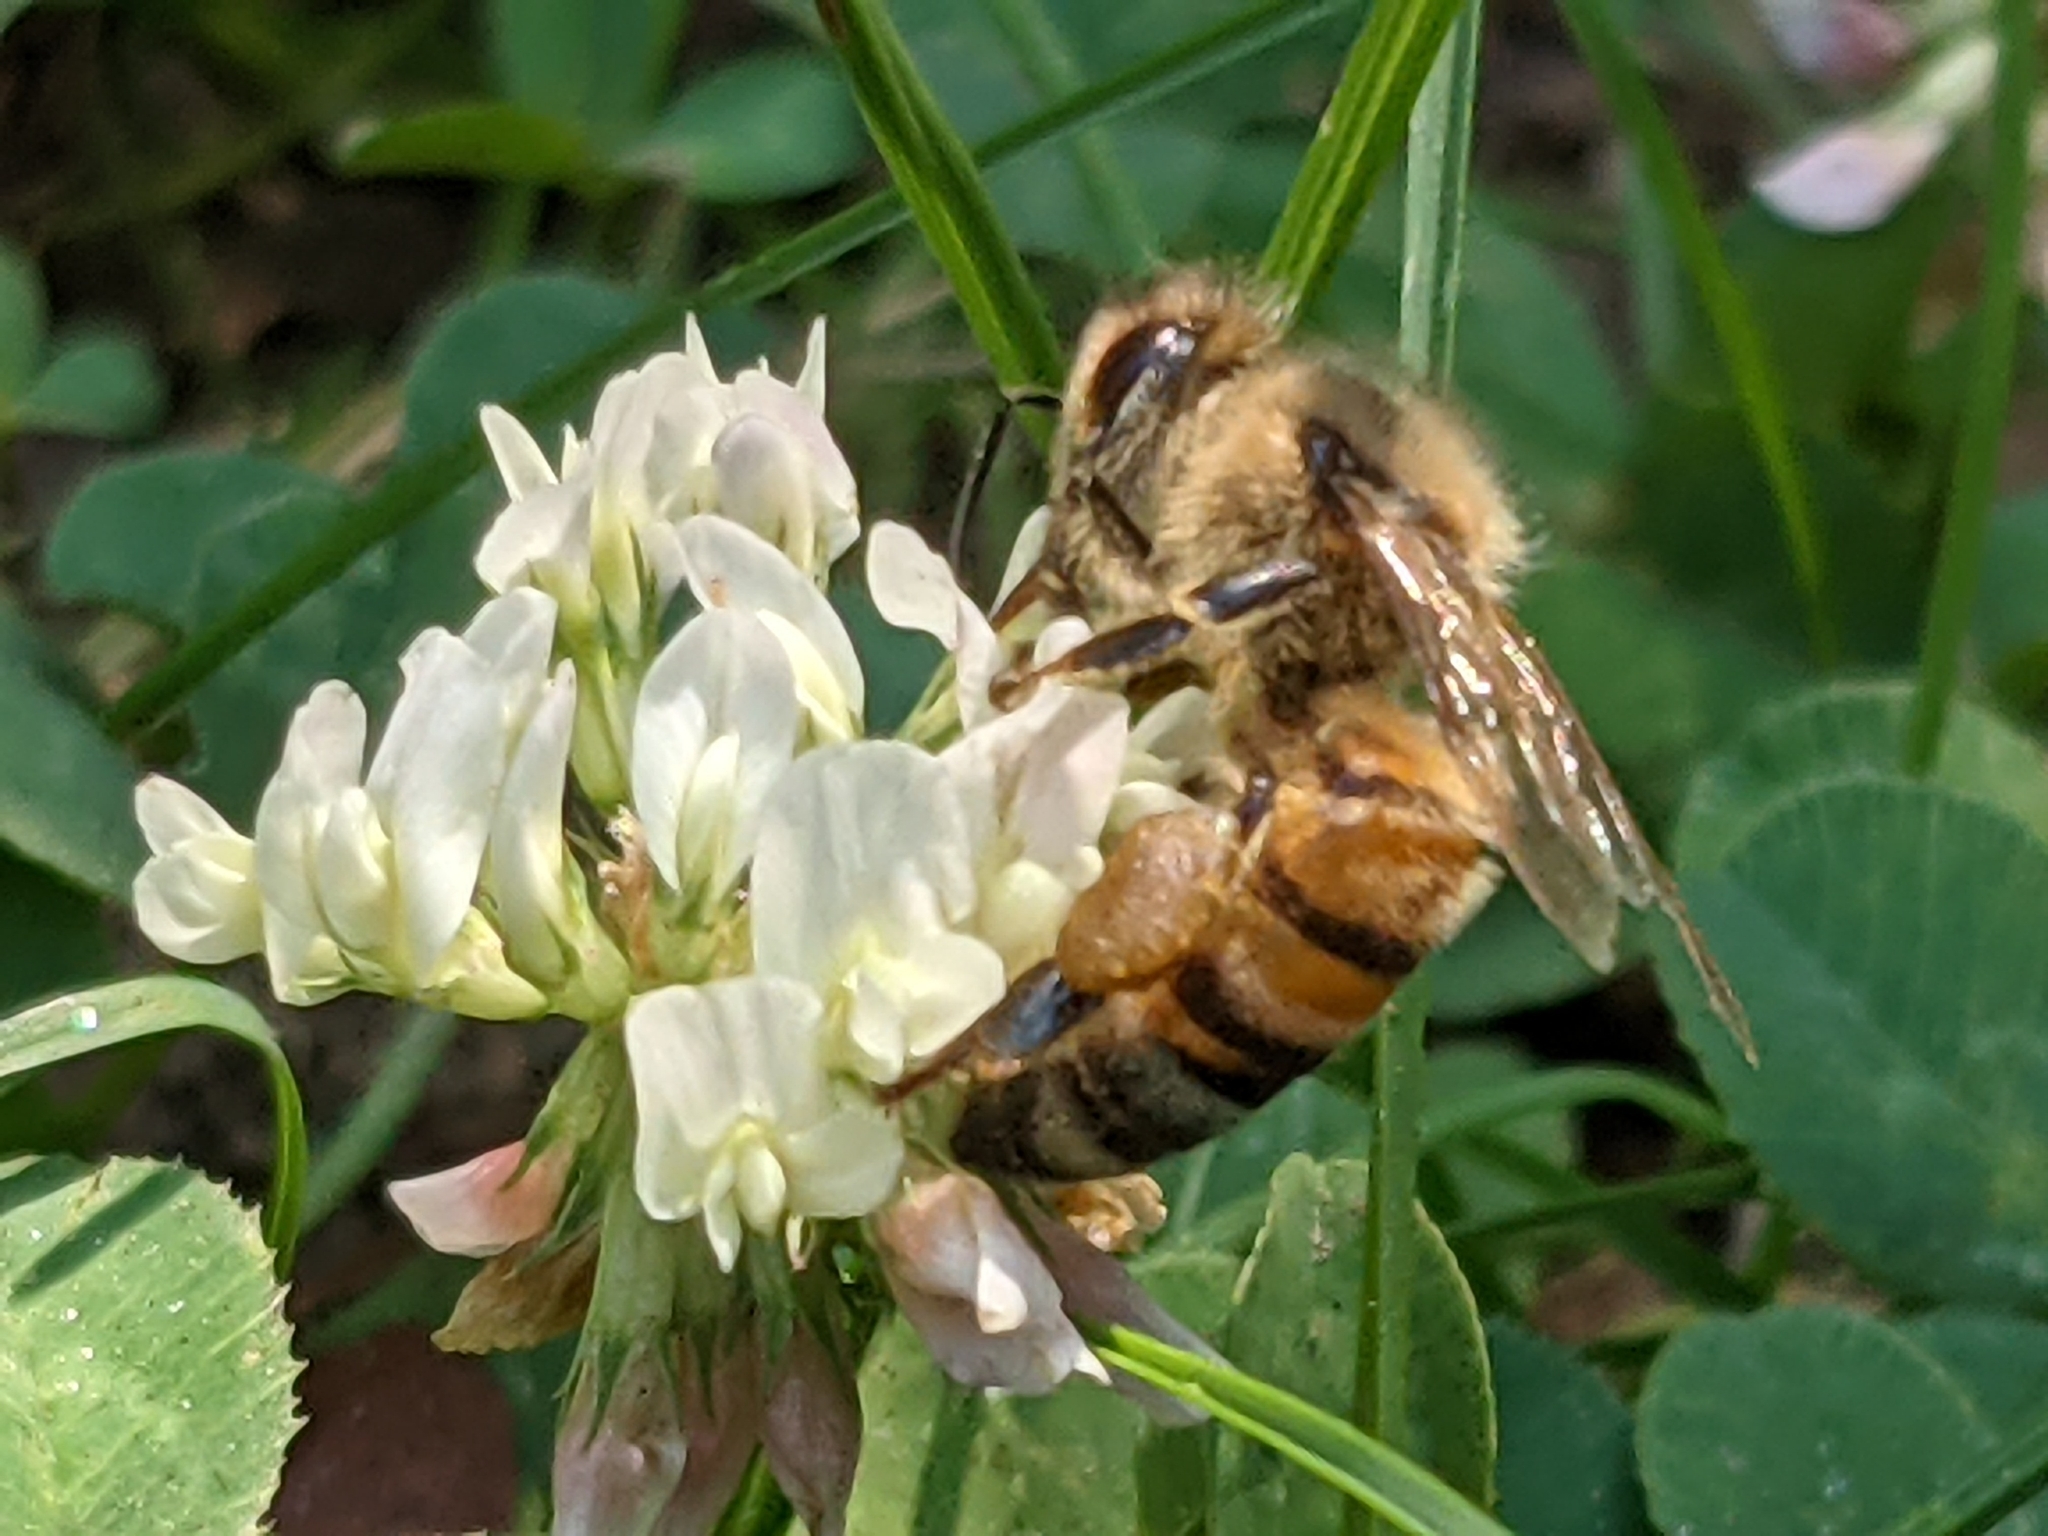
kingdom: Animalia
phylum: Arthropoda
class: Insecta
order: Hymenoptera
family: Apidae
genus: Apis
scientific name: Apis mellifera
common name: Honey bee
